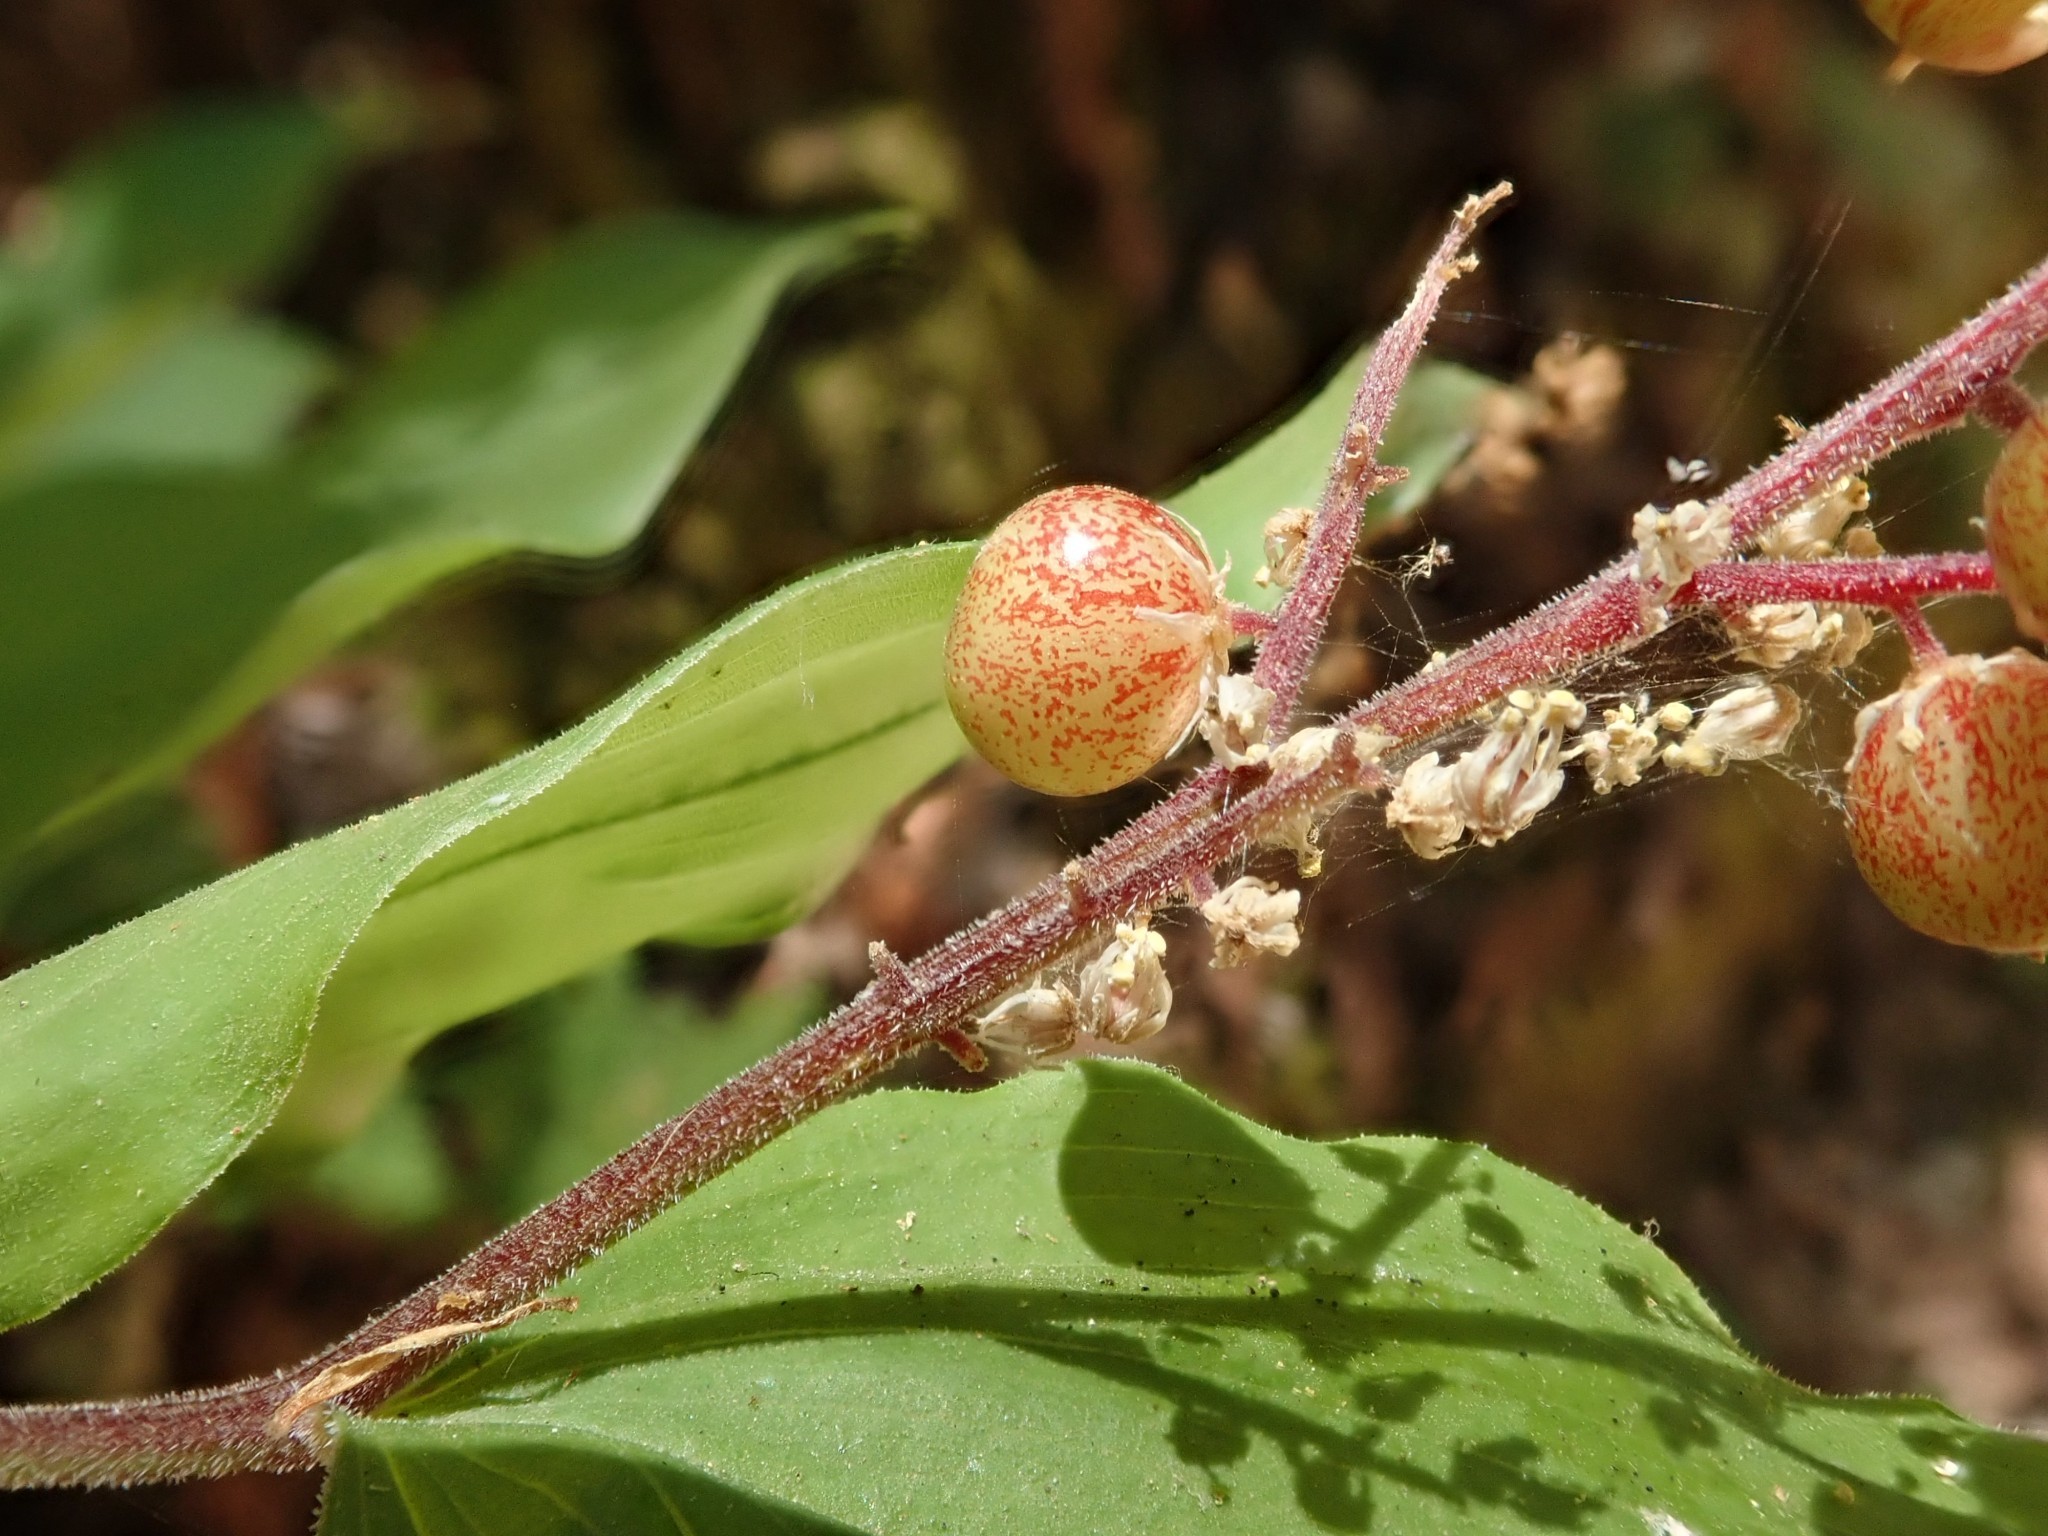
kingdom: Plantae
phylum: Tracheophyta
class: Liliopsida
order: Asparagales
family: Asparagaceae
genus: Maianthemum
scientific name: Maianthemum racemosum
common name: False spikenard
